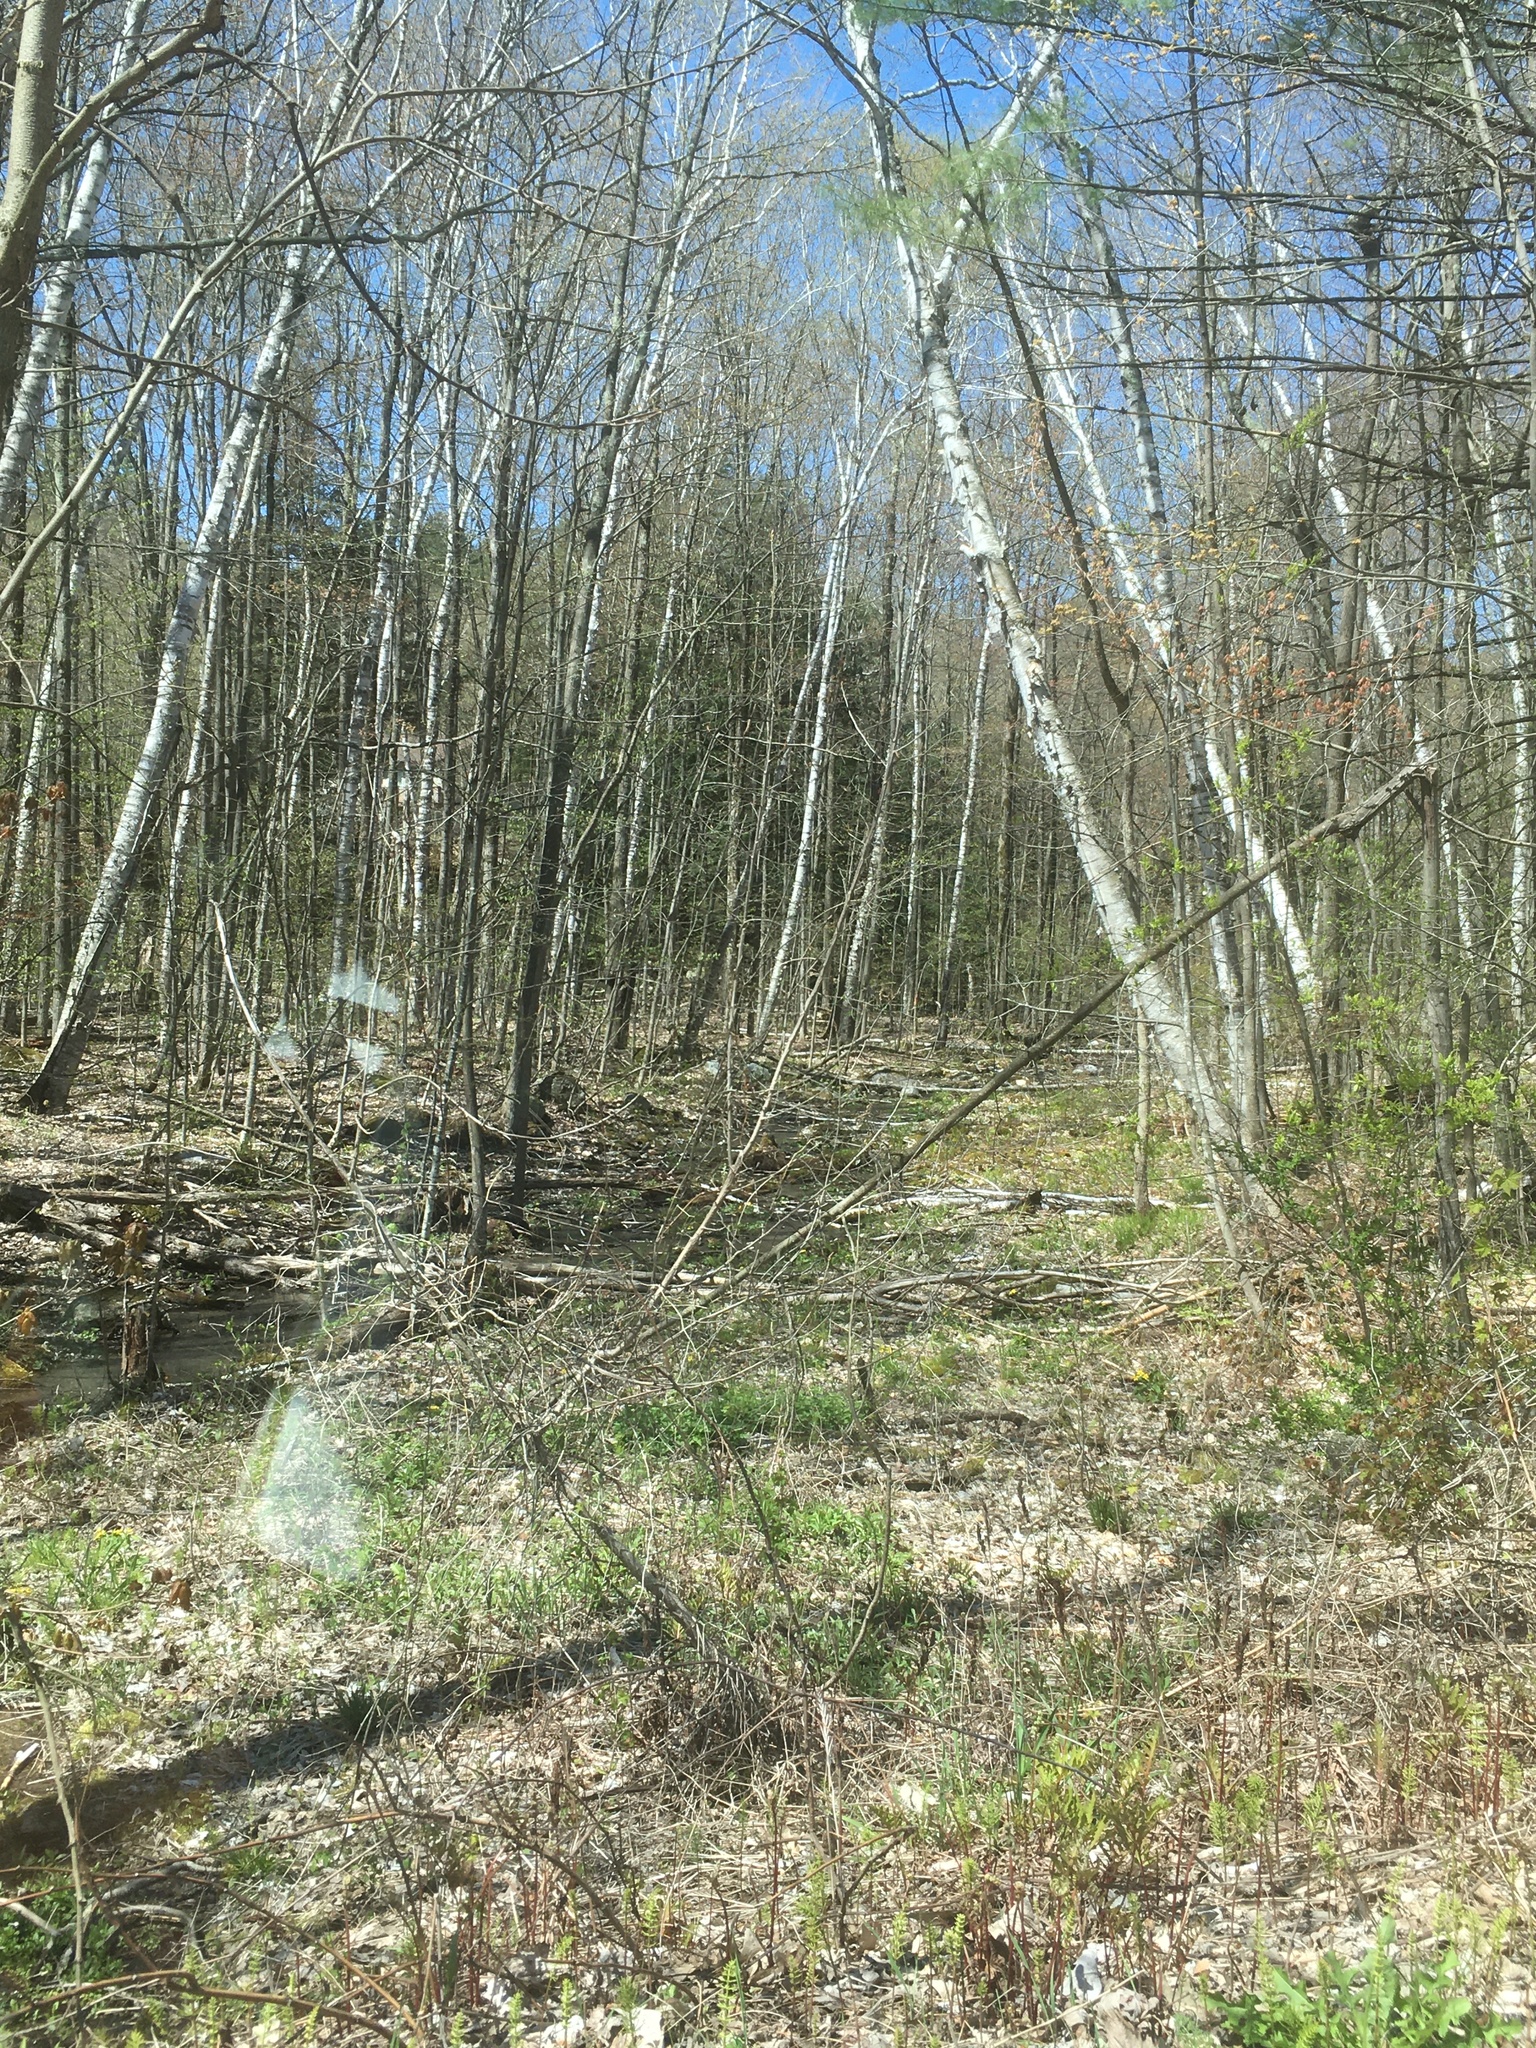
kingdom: Plantae
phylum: Tracheophyta
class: Magnoliopsida
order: Fagales
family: Betulaceae
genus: Betula
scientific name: Betula papyrifera
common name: Paper birch
